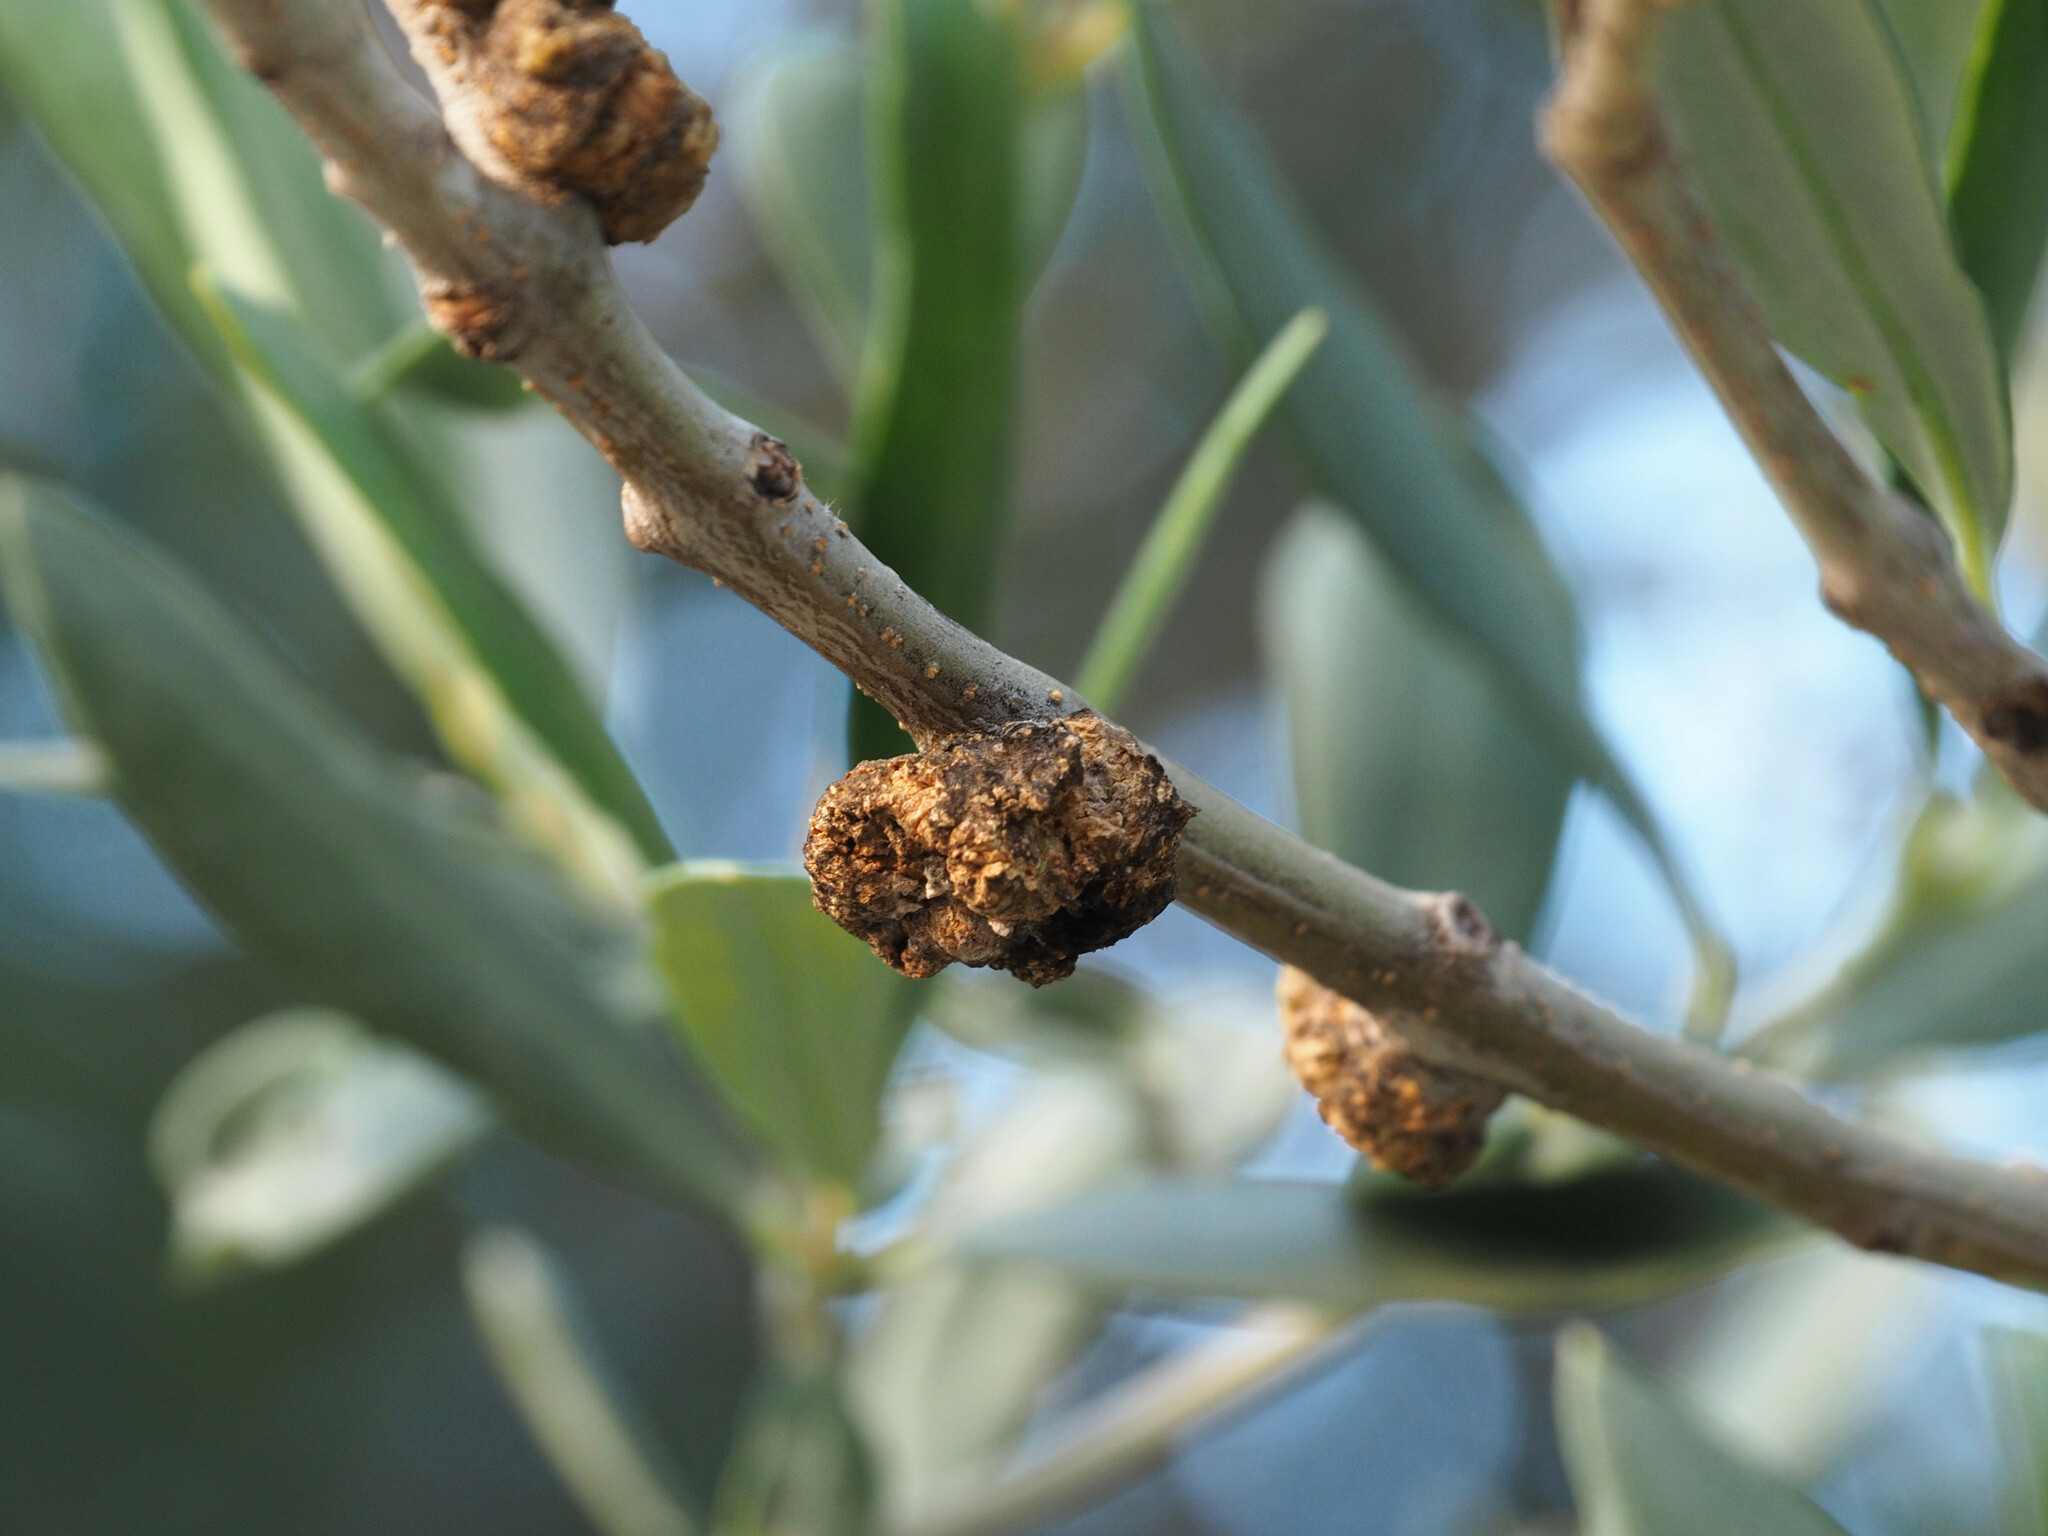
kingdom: Bacteria
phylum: Proteobacteria
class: Gammaproteobacteria
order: Pseudomonadales
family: Pseudomonadaceae
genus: Pseudomonas
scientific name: Pseudomonas
